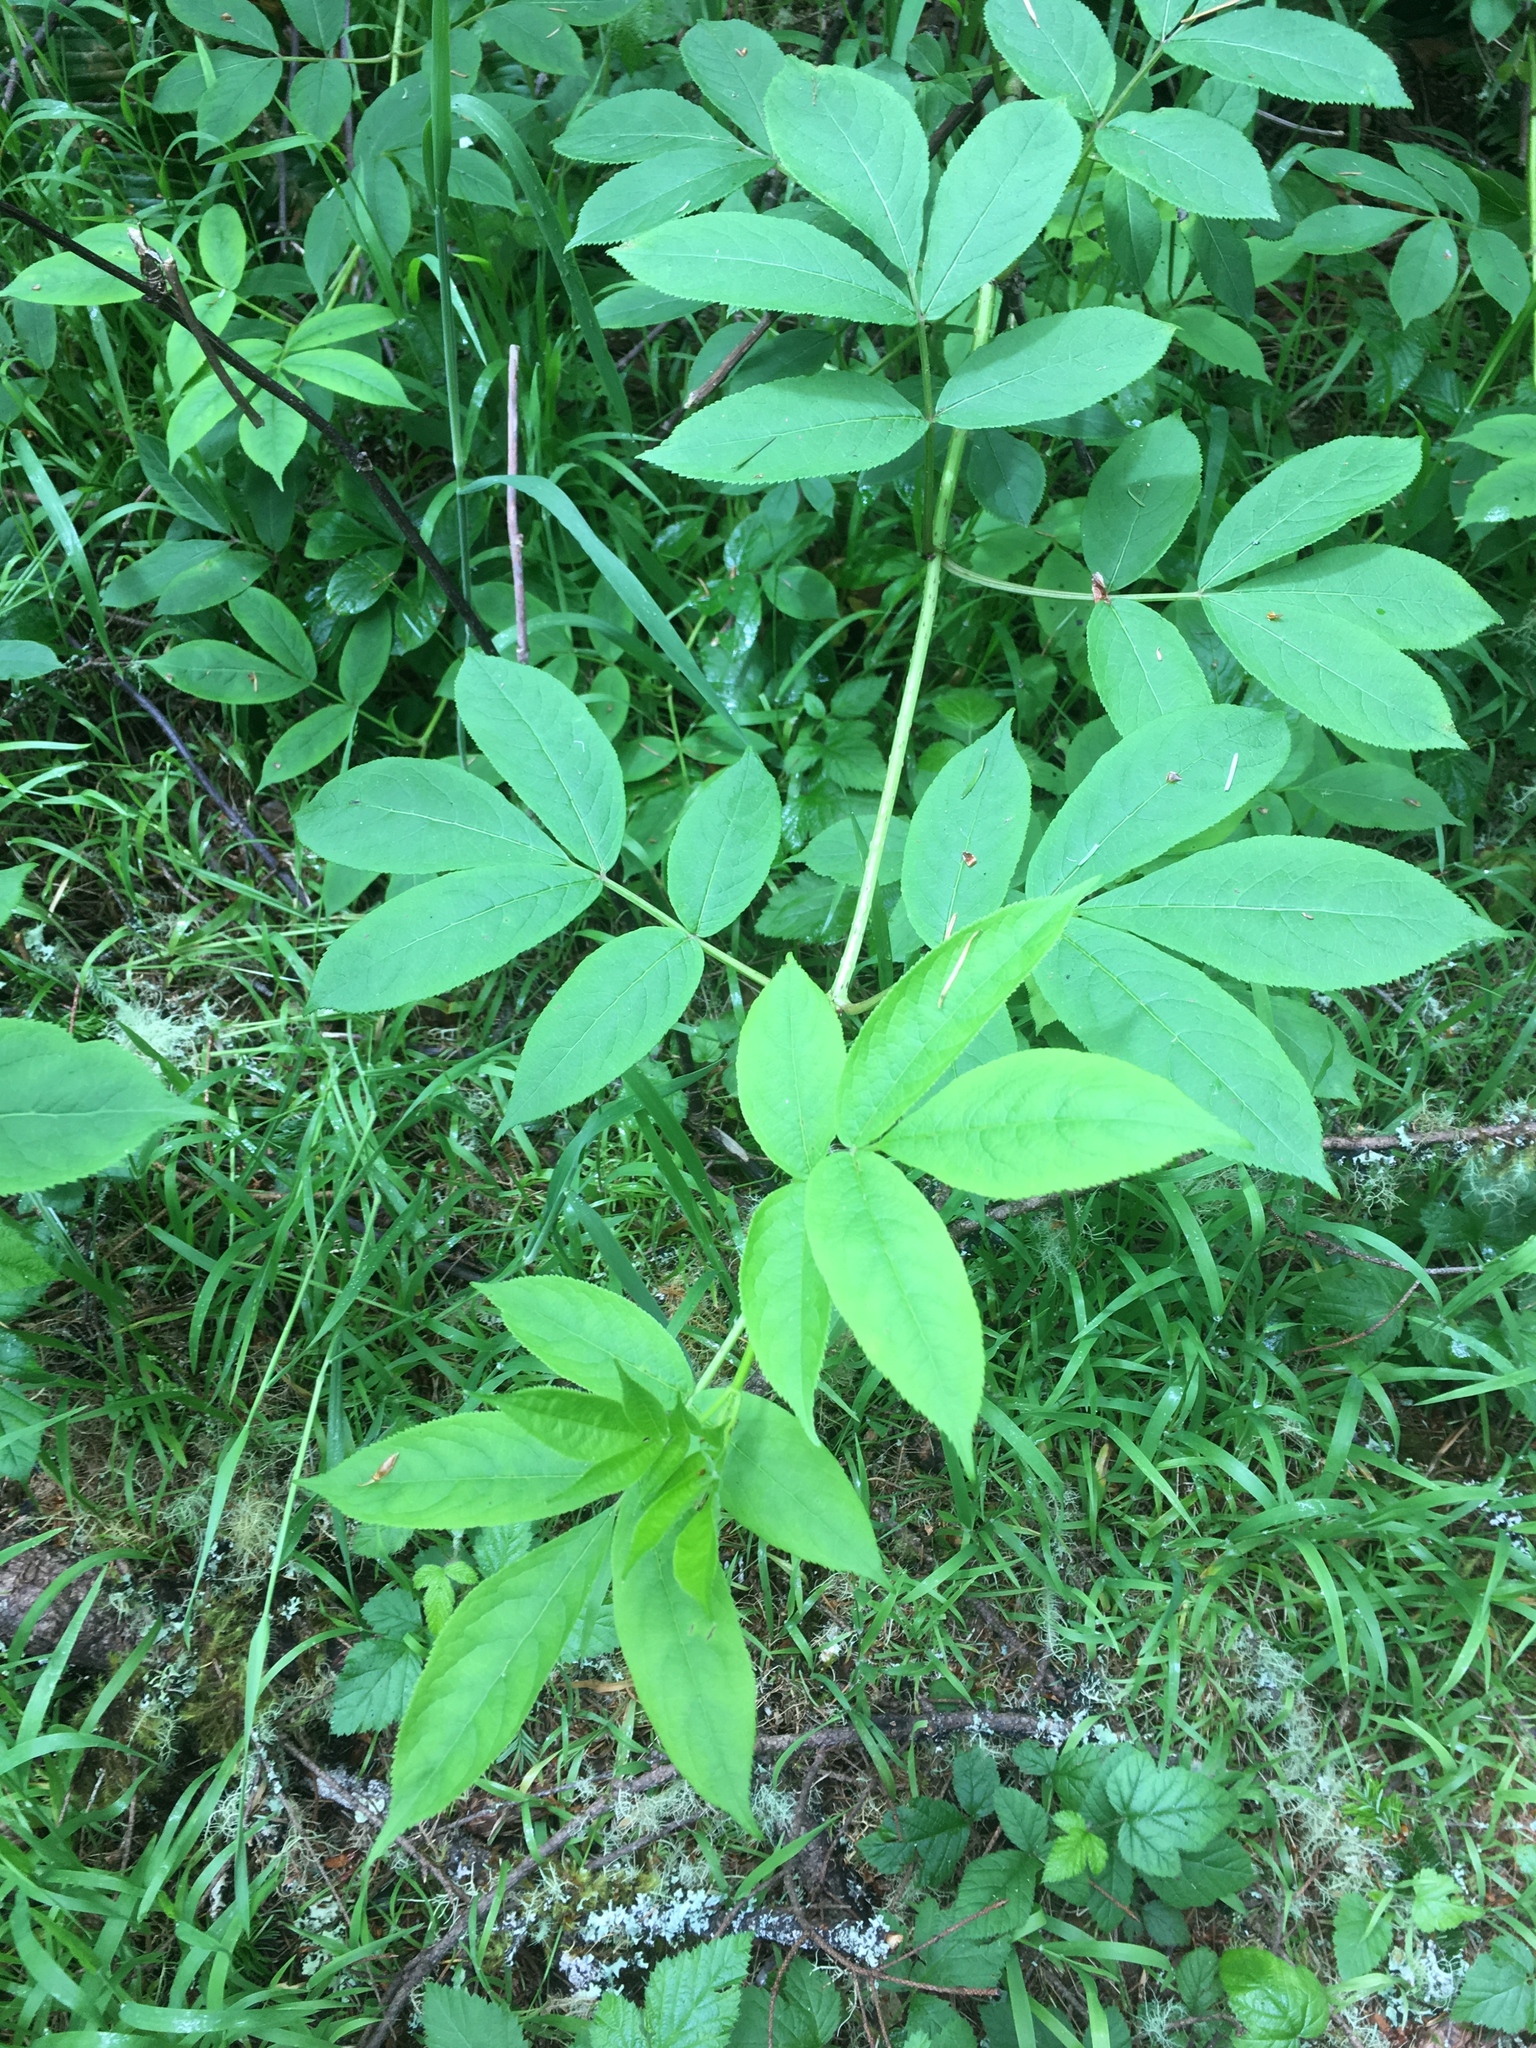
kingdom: Plantae
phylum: Tracheophyta
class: Magnoliopsida
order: Dipsacales
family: Viburnaceae
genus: Sambucus
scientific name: Sambucus racemosa
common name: Red-berried elder
